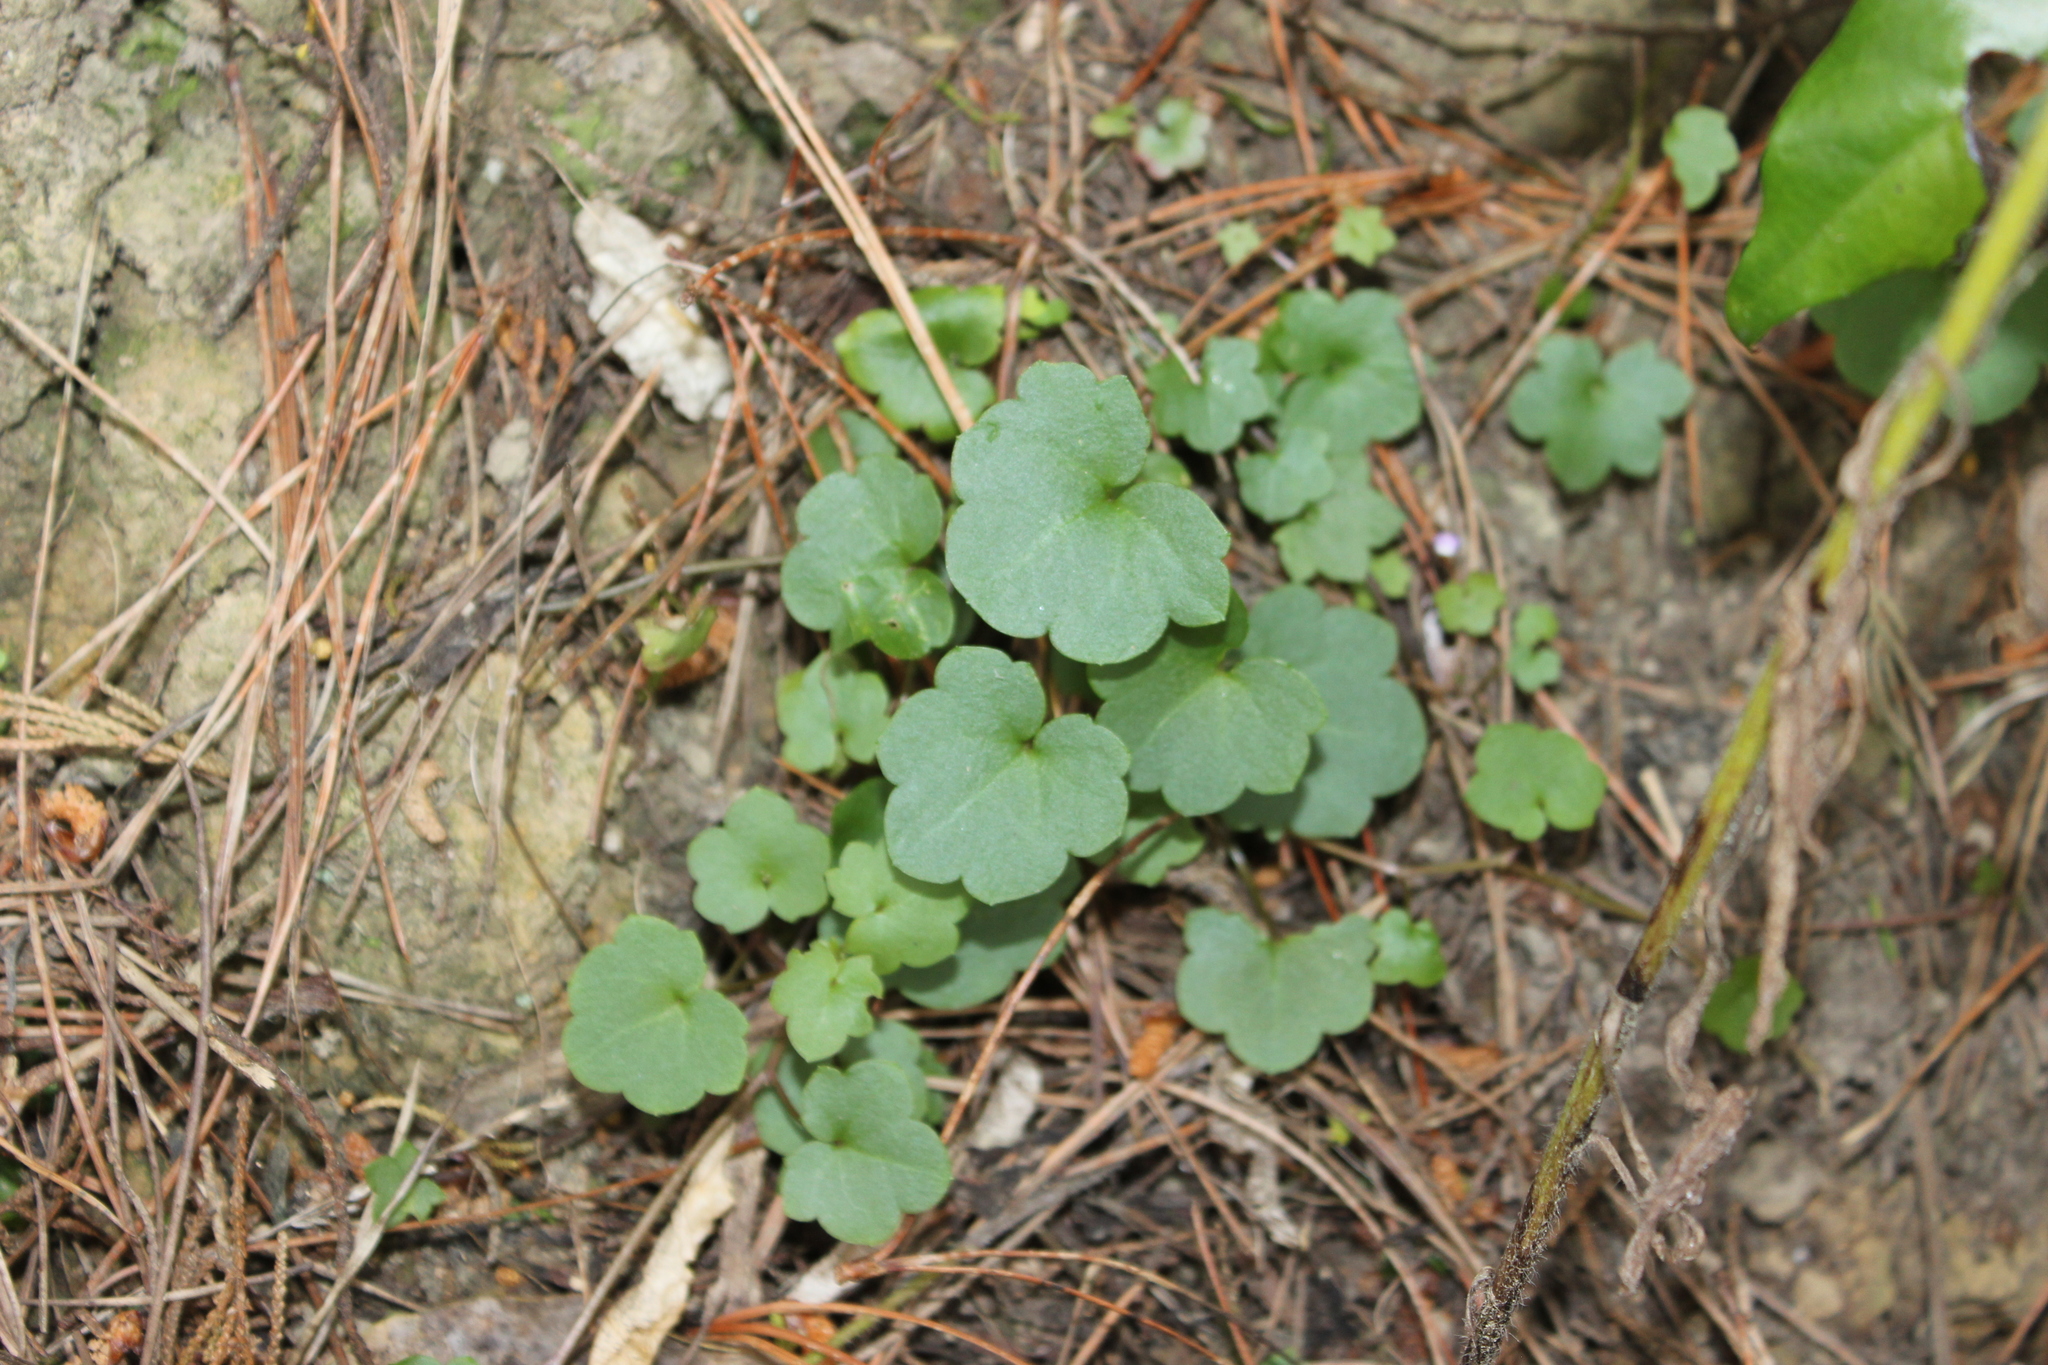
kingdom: Plantae
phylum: Tracheophyta
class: Magnoliopsida
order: Lamiales
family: Plantaginaceae
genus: Cymbalaria
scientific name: Cymbalaria muralis
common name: Ivy-leaved toadflax
